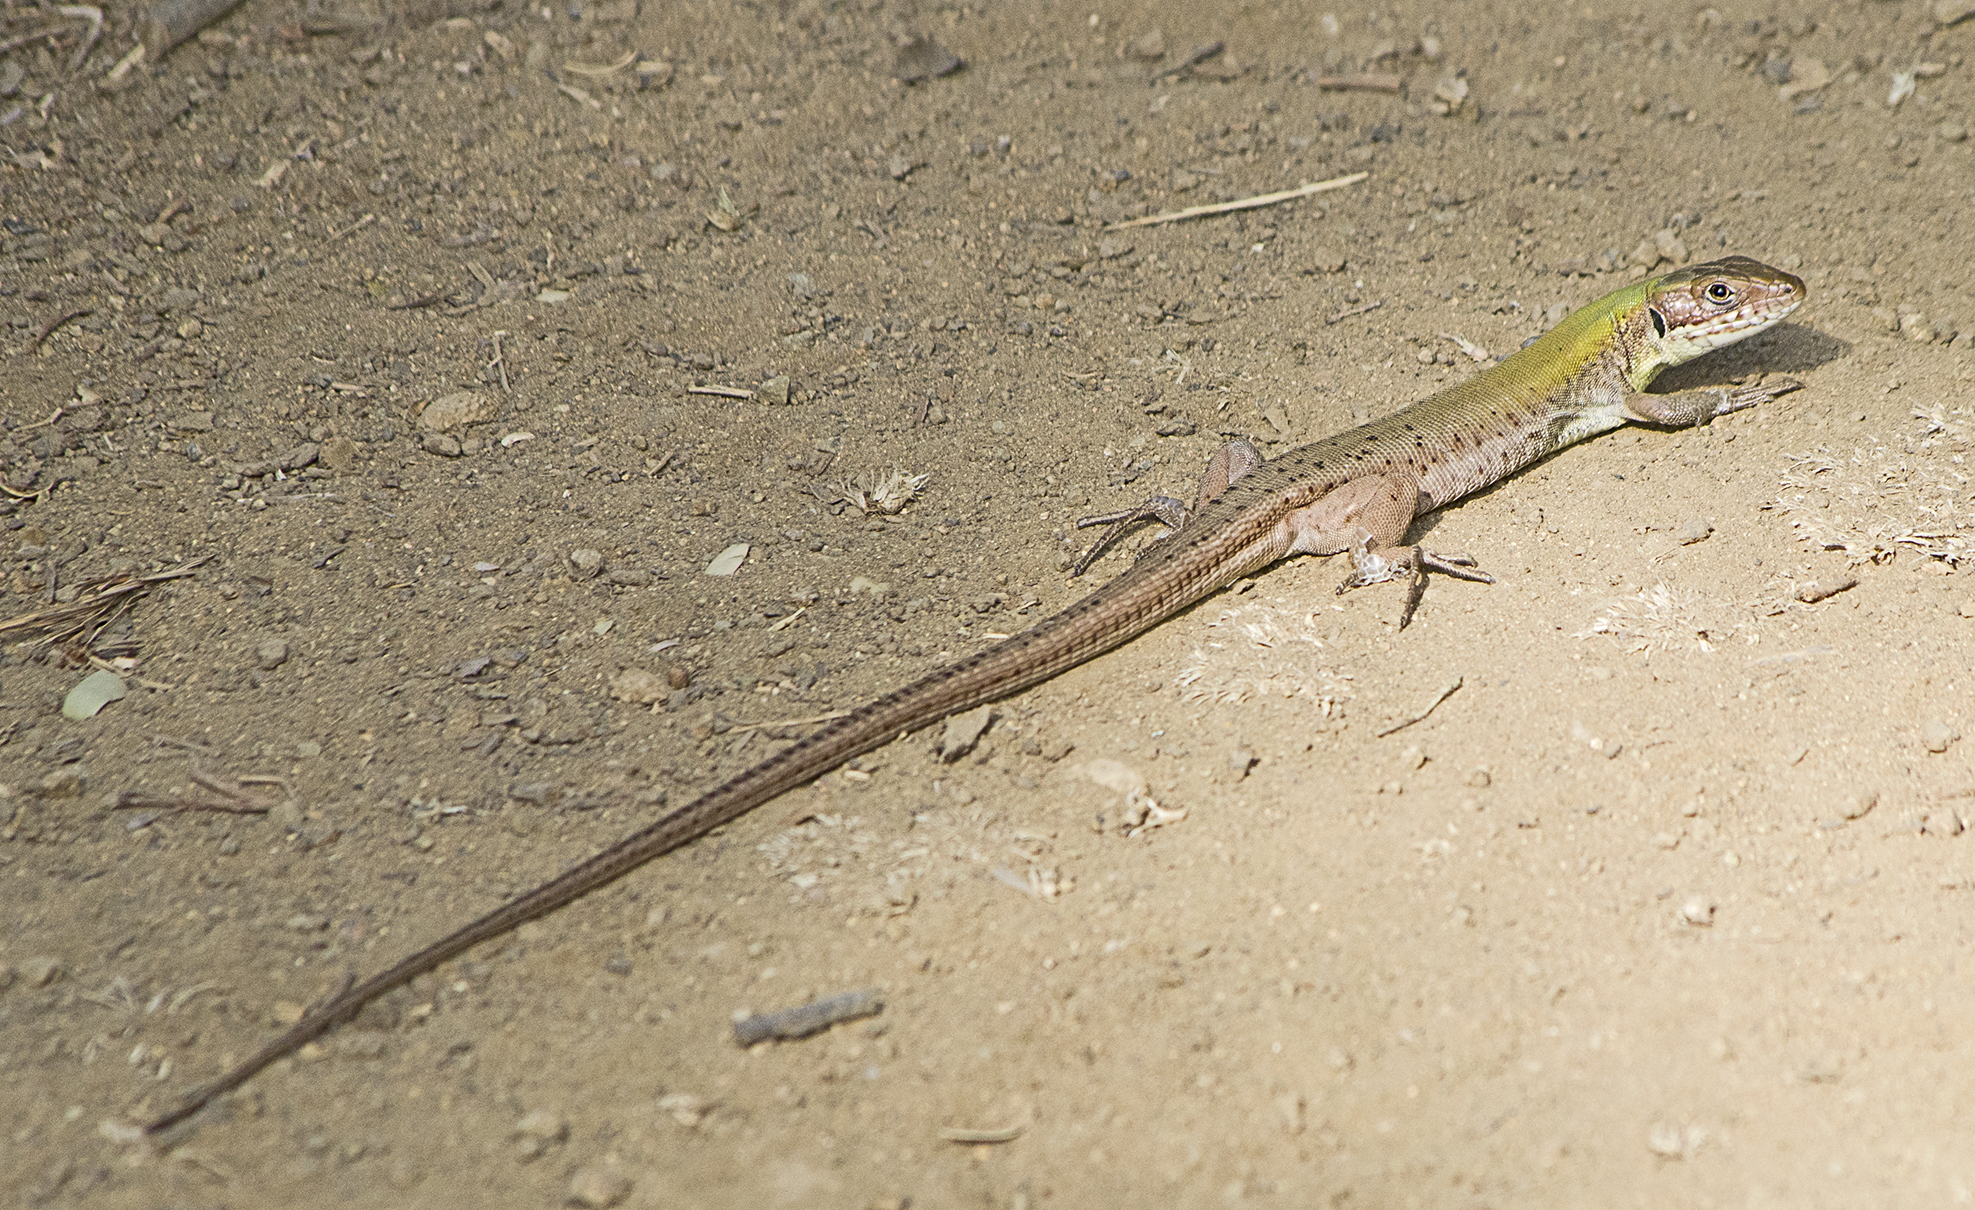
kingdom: Animalia
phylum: Chordata
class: Squamata
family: Lacertidae
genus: Lacerta
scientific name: Lacerta viridis
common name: European green lizard
